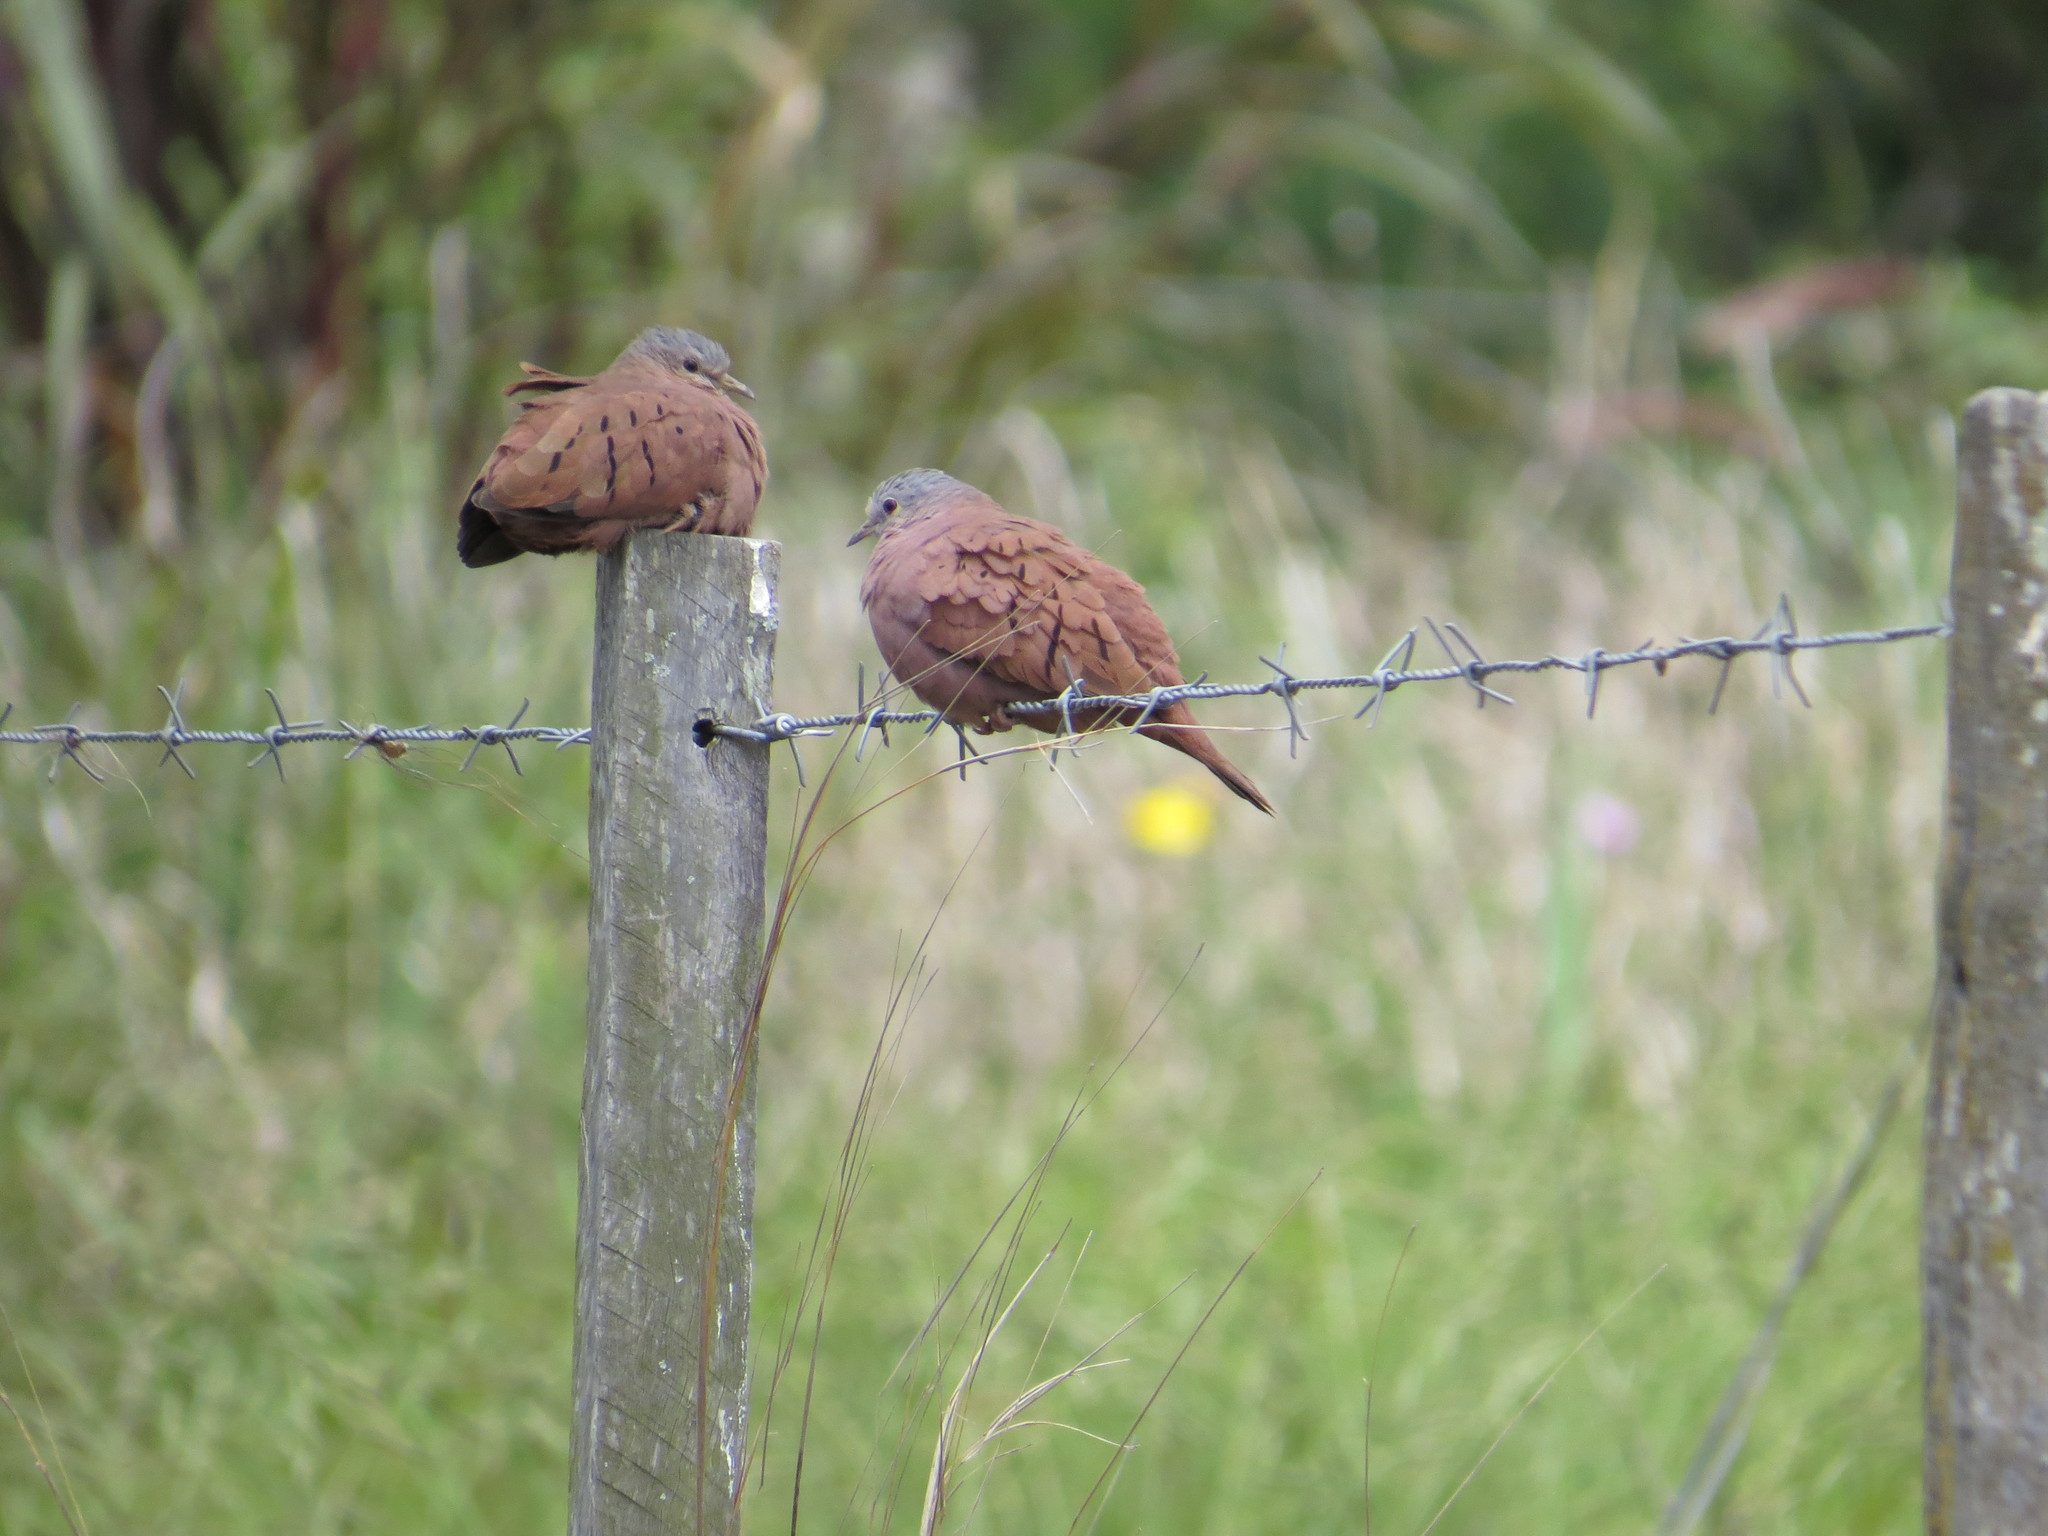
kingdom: Animalia
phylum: Chordata
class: Aves
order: Columbiformes
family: Columbidae
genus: Columbina
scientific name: Columbina talpacoti
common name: Ruddy ground dove
